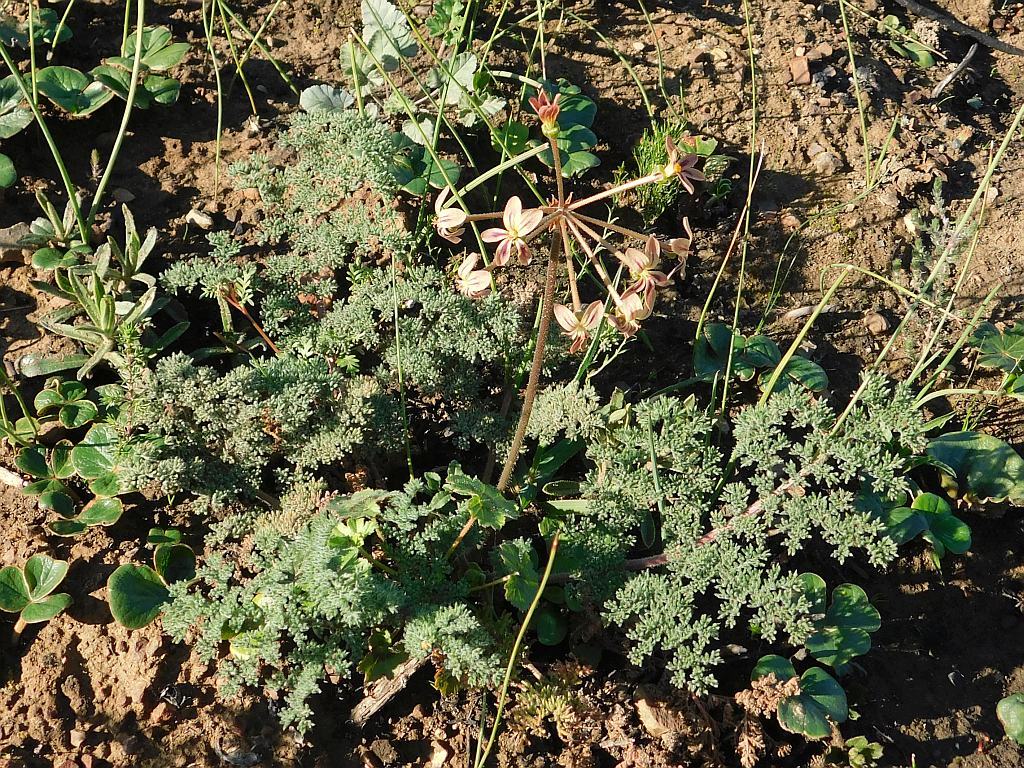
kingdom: Plantae
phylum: Tracheophyta
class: Magnoliopsida
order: Geraniales
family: Geraniaceae
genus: Pelargonium
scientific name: Pelargonium triste
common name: Night-scent pelargonium
